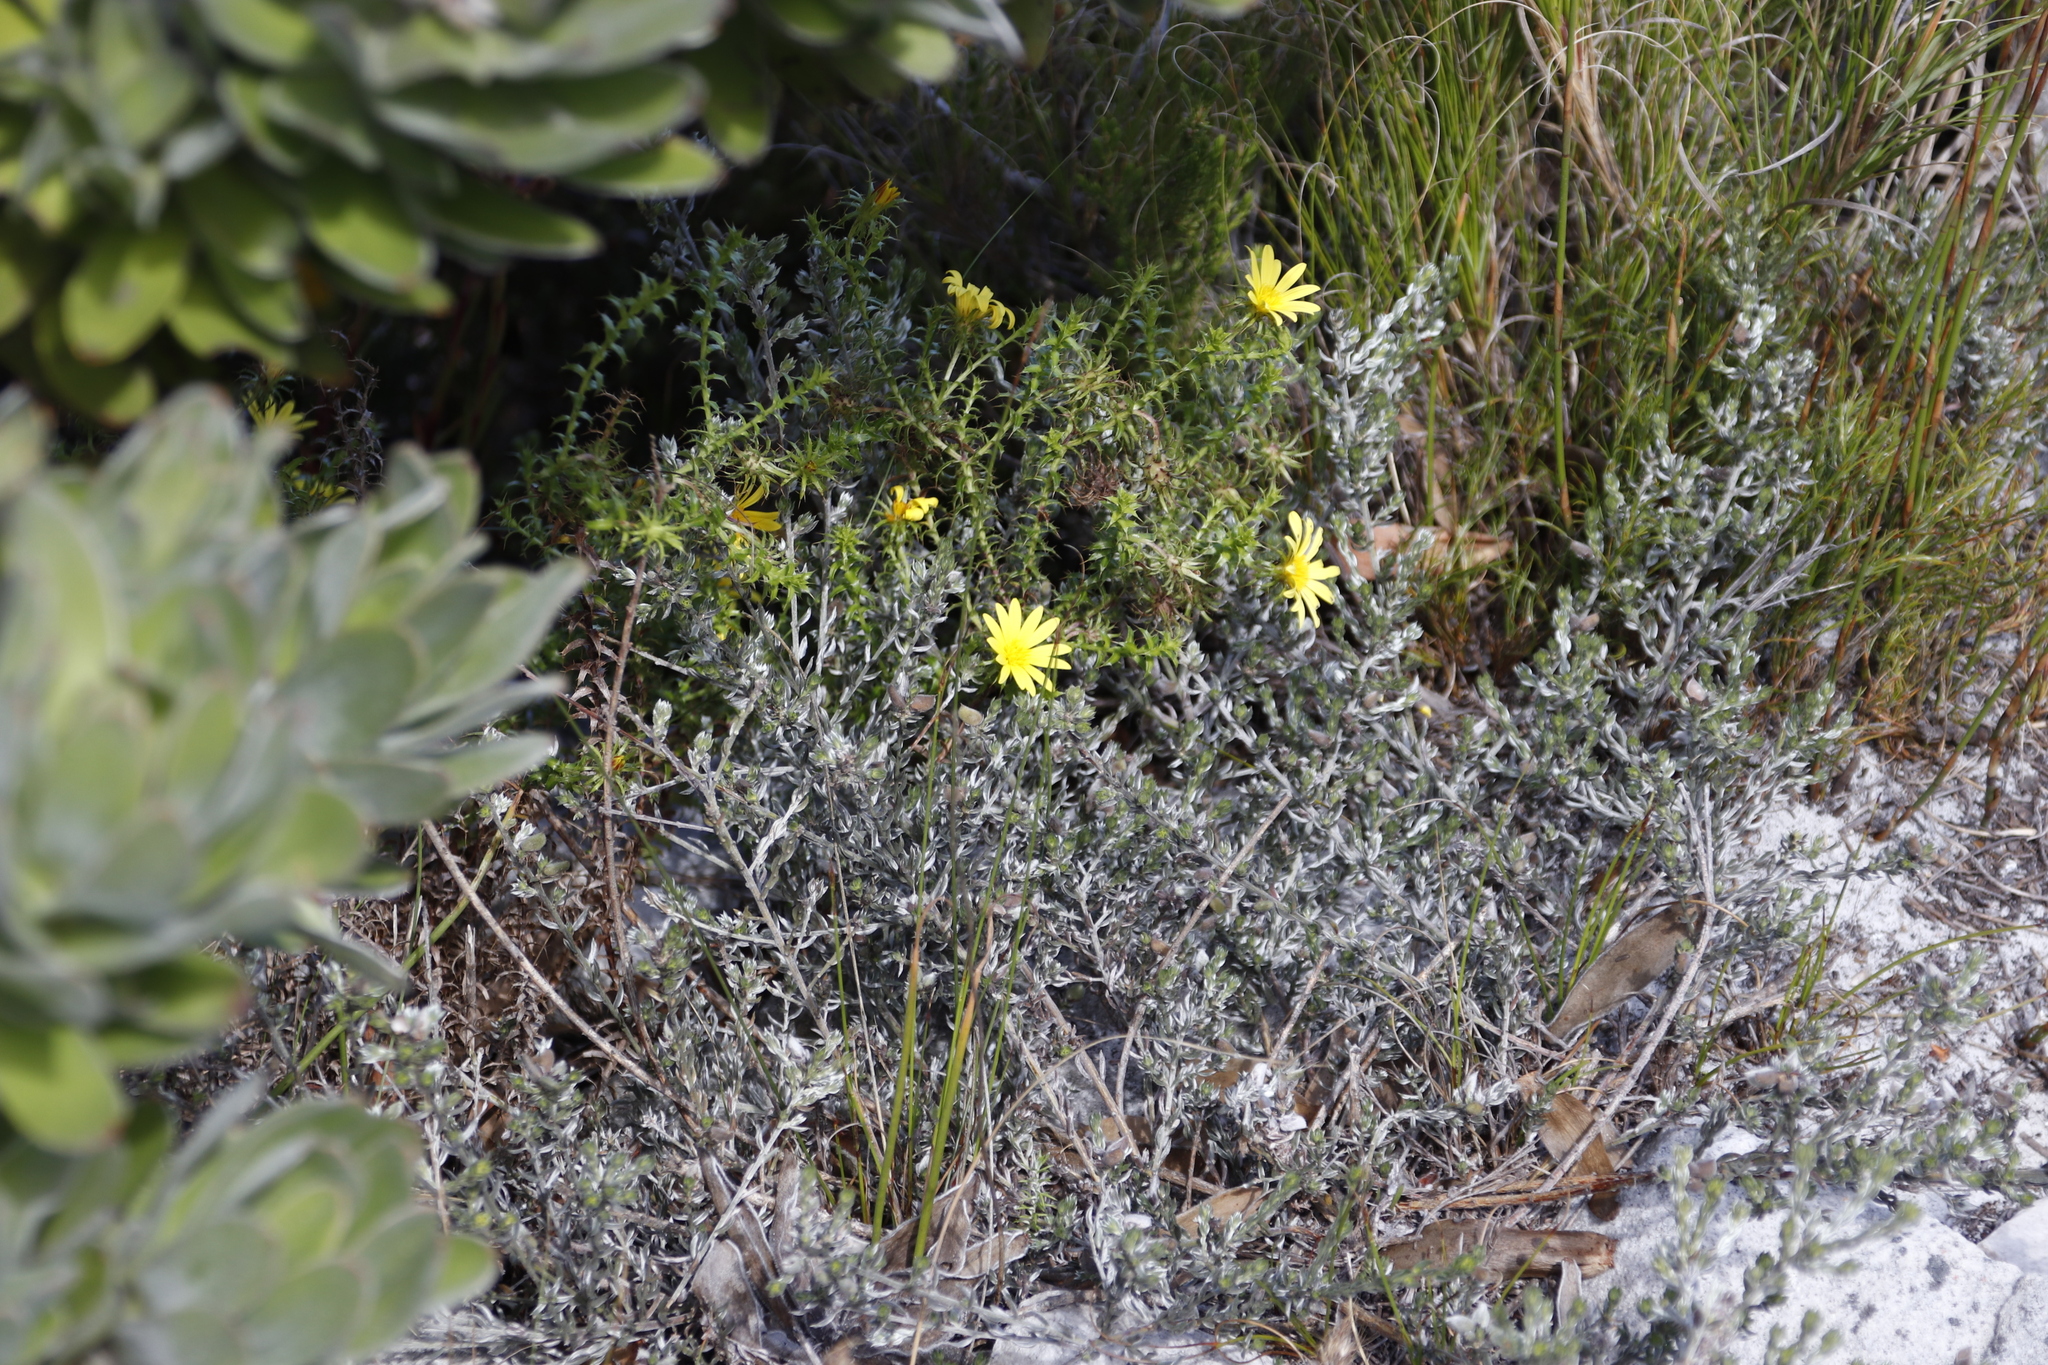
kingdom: Plantae
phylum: Tracheophyta
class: Magnoliopsida
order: Asterales
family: Asteraceae
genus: Cullumia
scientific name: Cullumia setosa
